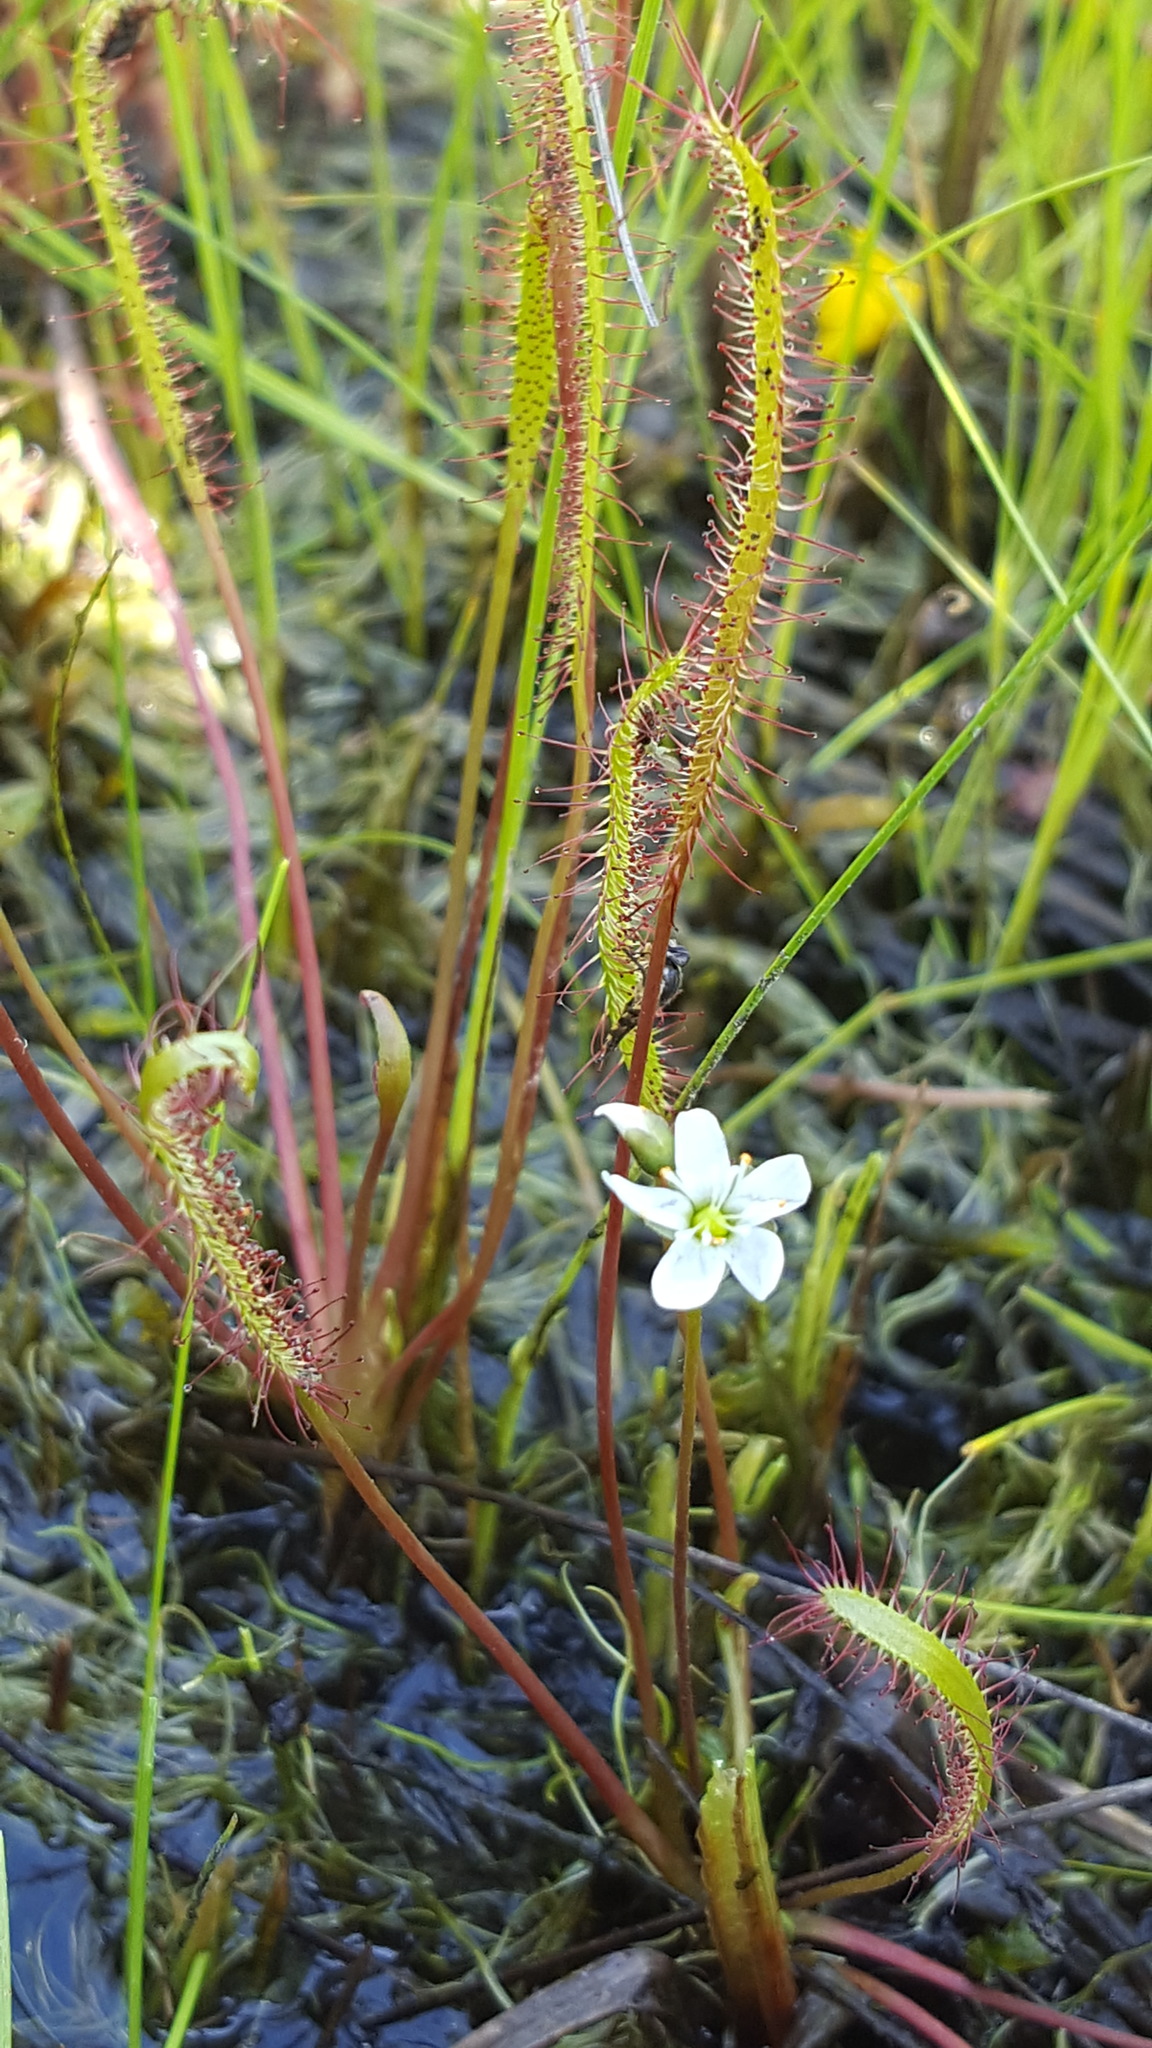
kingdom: Plantae
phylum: Tracheophyta
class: Magnoliopsida
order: Caryophyllales
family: Droseraceae
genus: Drosera
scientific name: Drosera linearis
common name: Linear-leaved sundew
